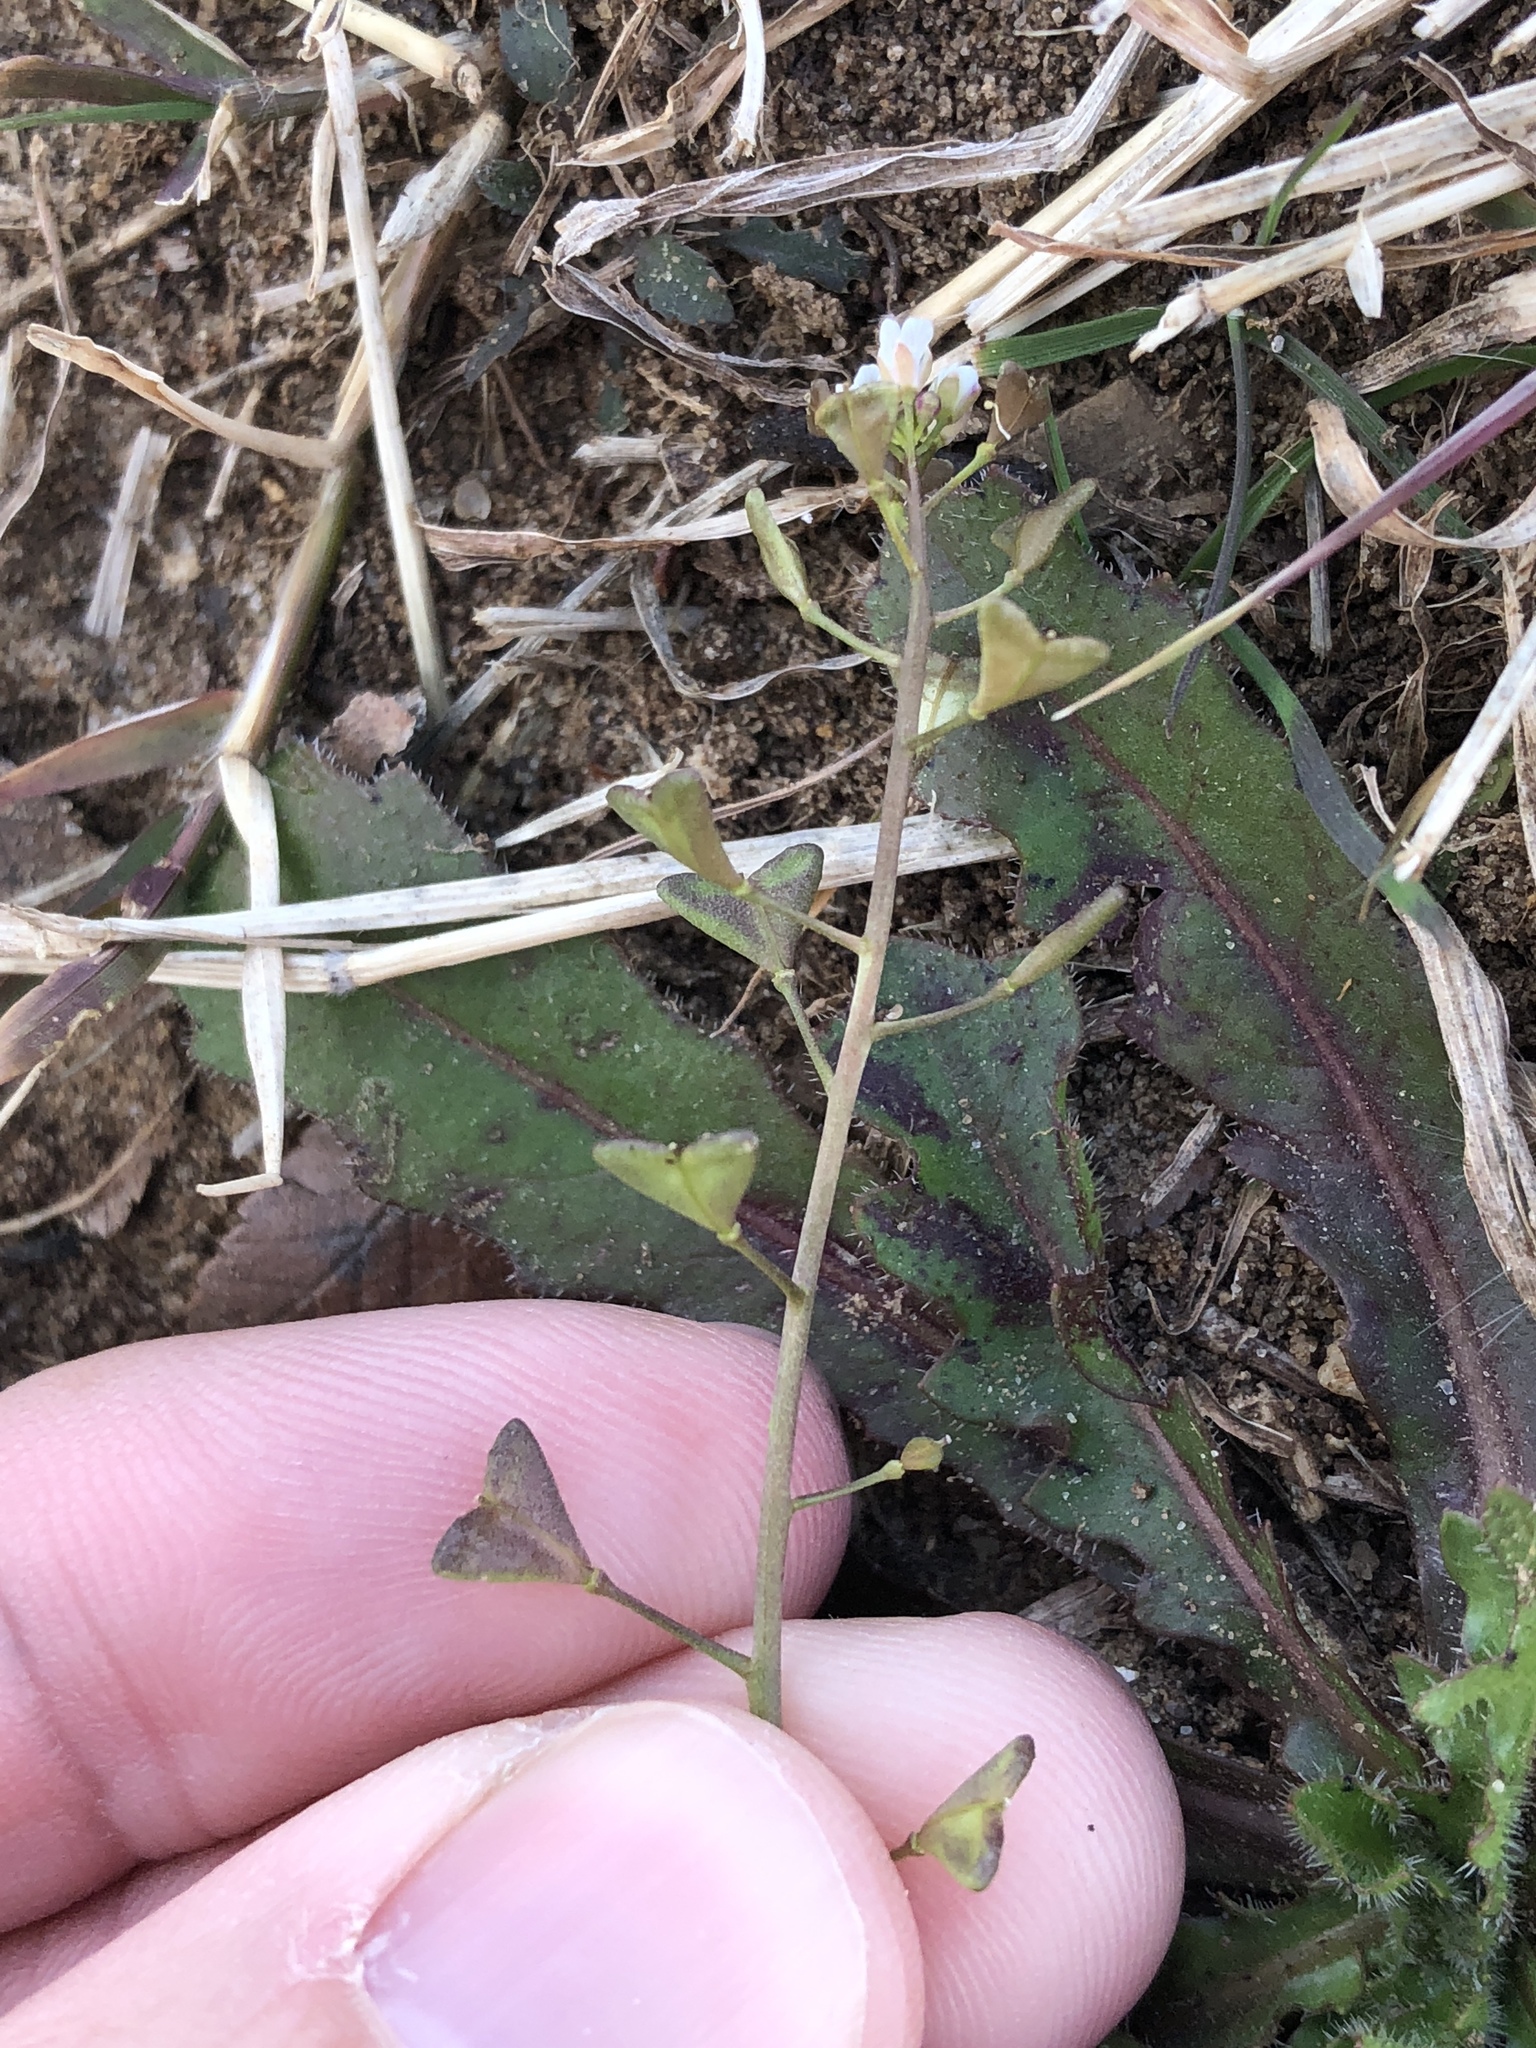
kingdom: Plantae
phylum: Tracheophyta
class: Magnoliopsida
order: Brassicales
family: Brassicaceae
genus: Capsella
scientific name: Capsella bursa-pastoris
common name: Shepherd's purse
